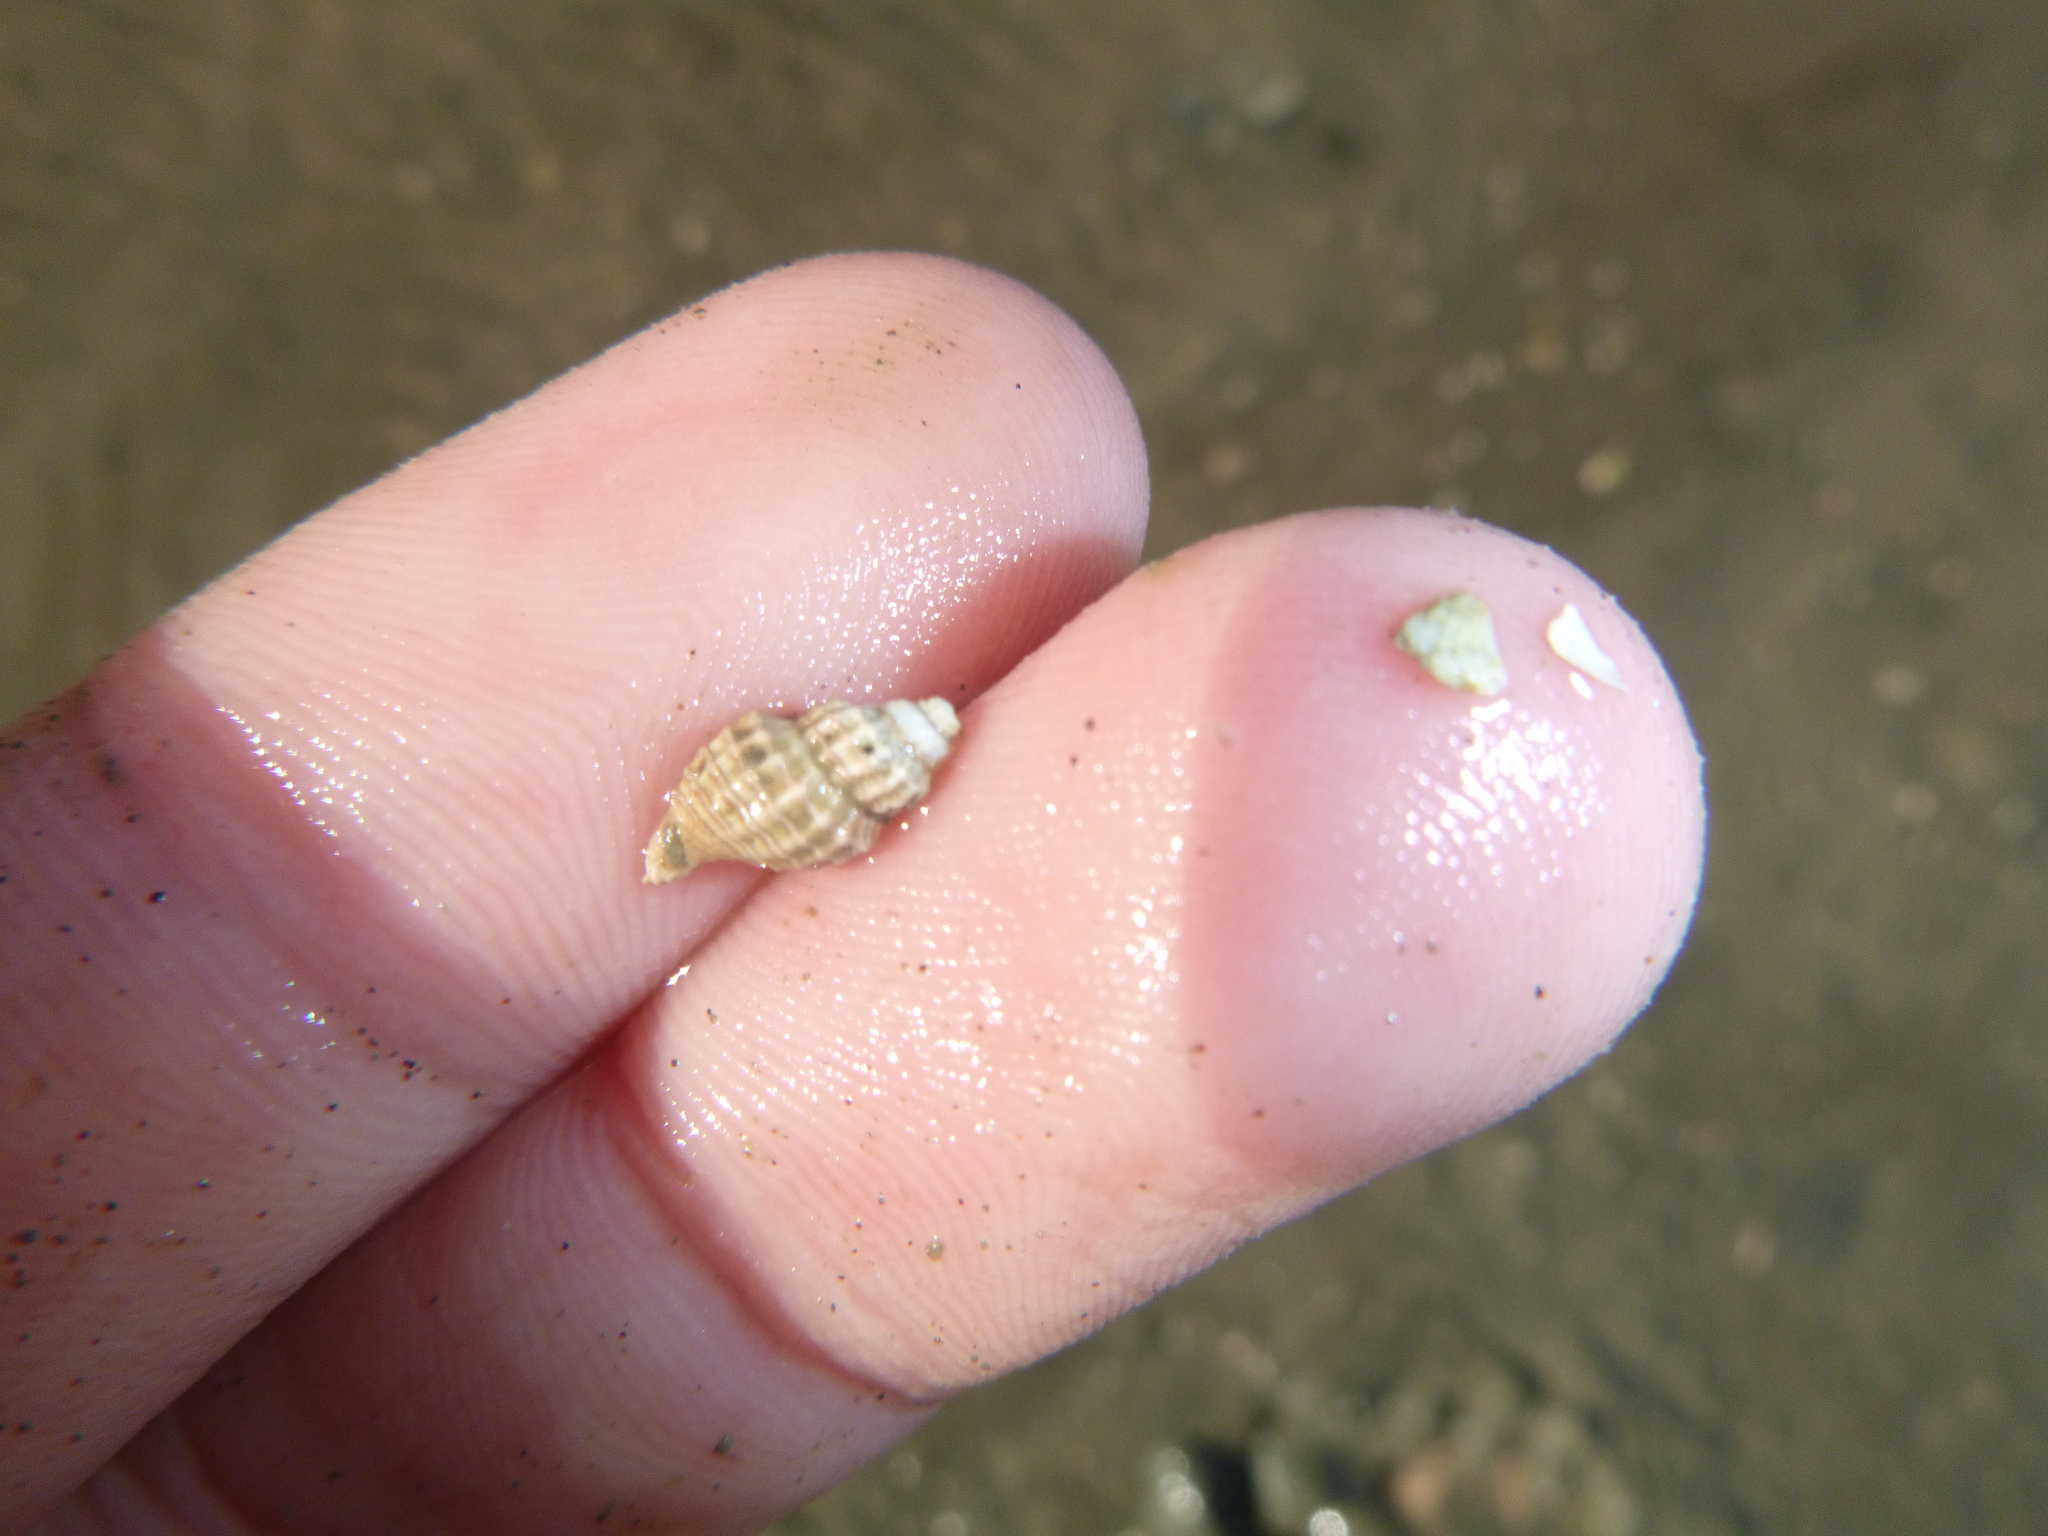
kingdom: Animalia
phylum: Mollusca
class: Gastropoda
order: Neogastropoda
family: Muricidae
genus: Xymene
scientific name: Xymene plebeius
